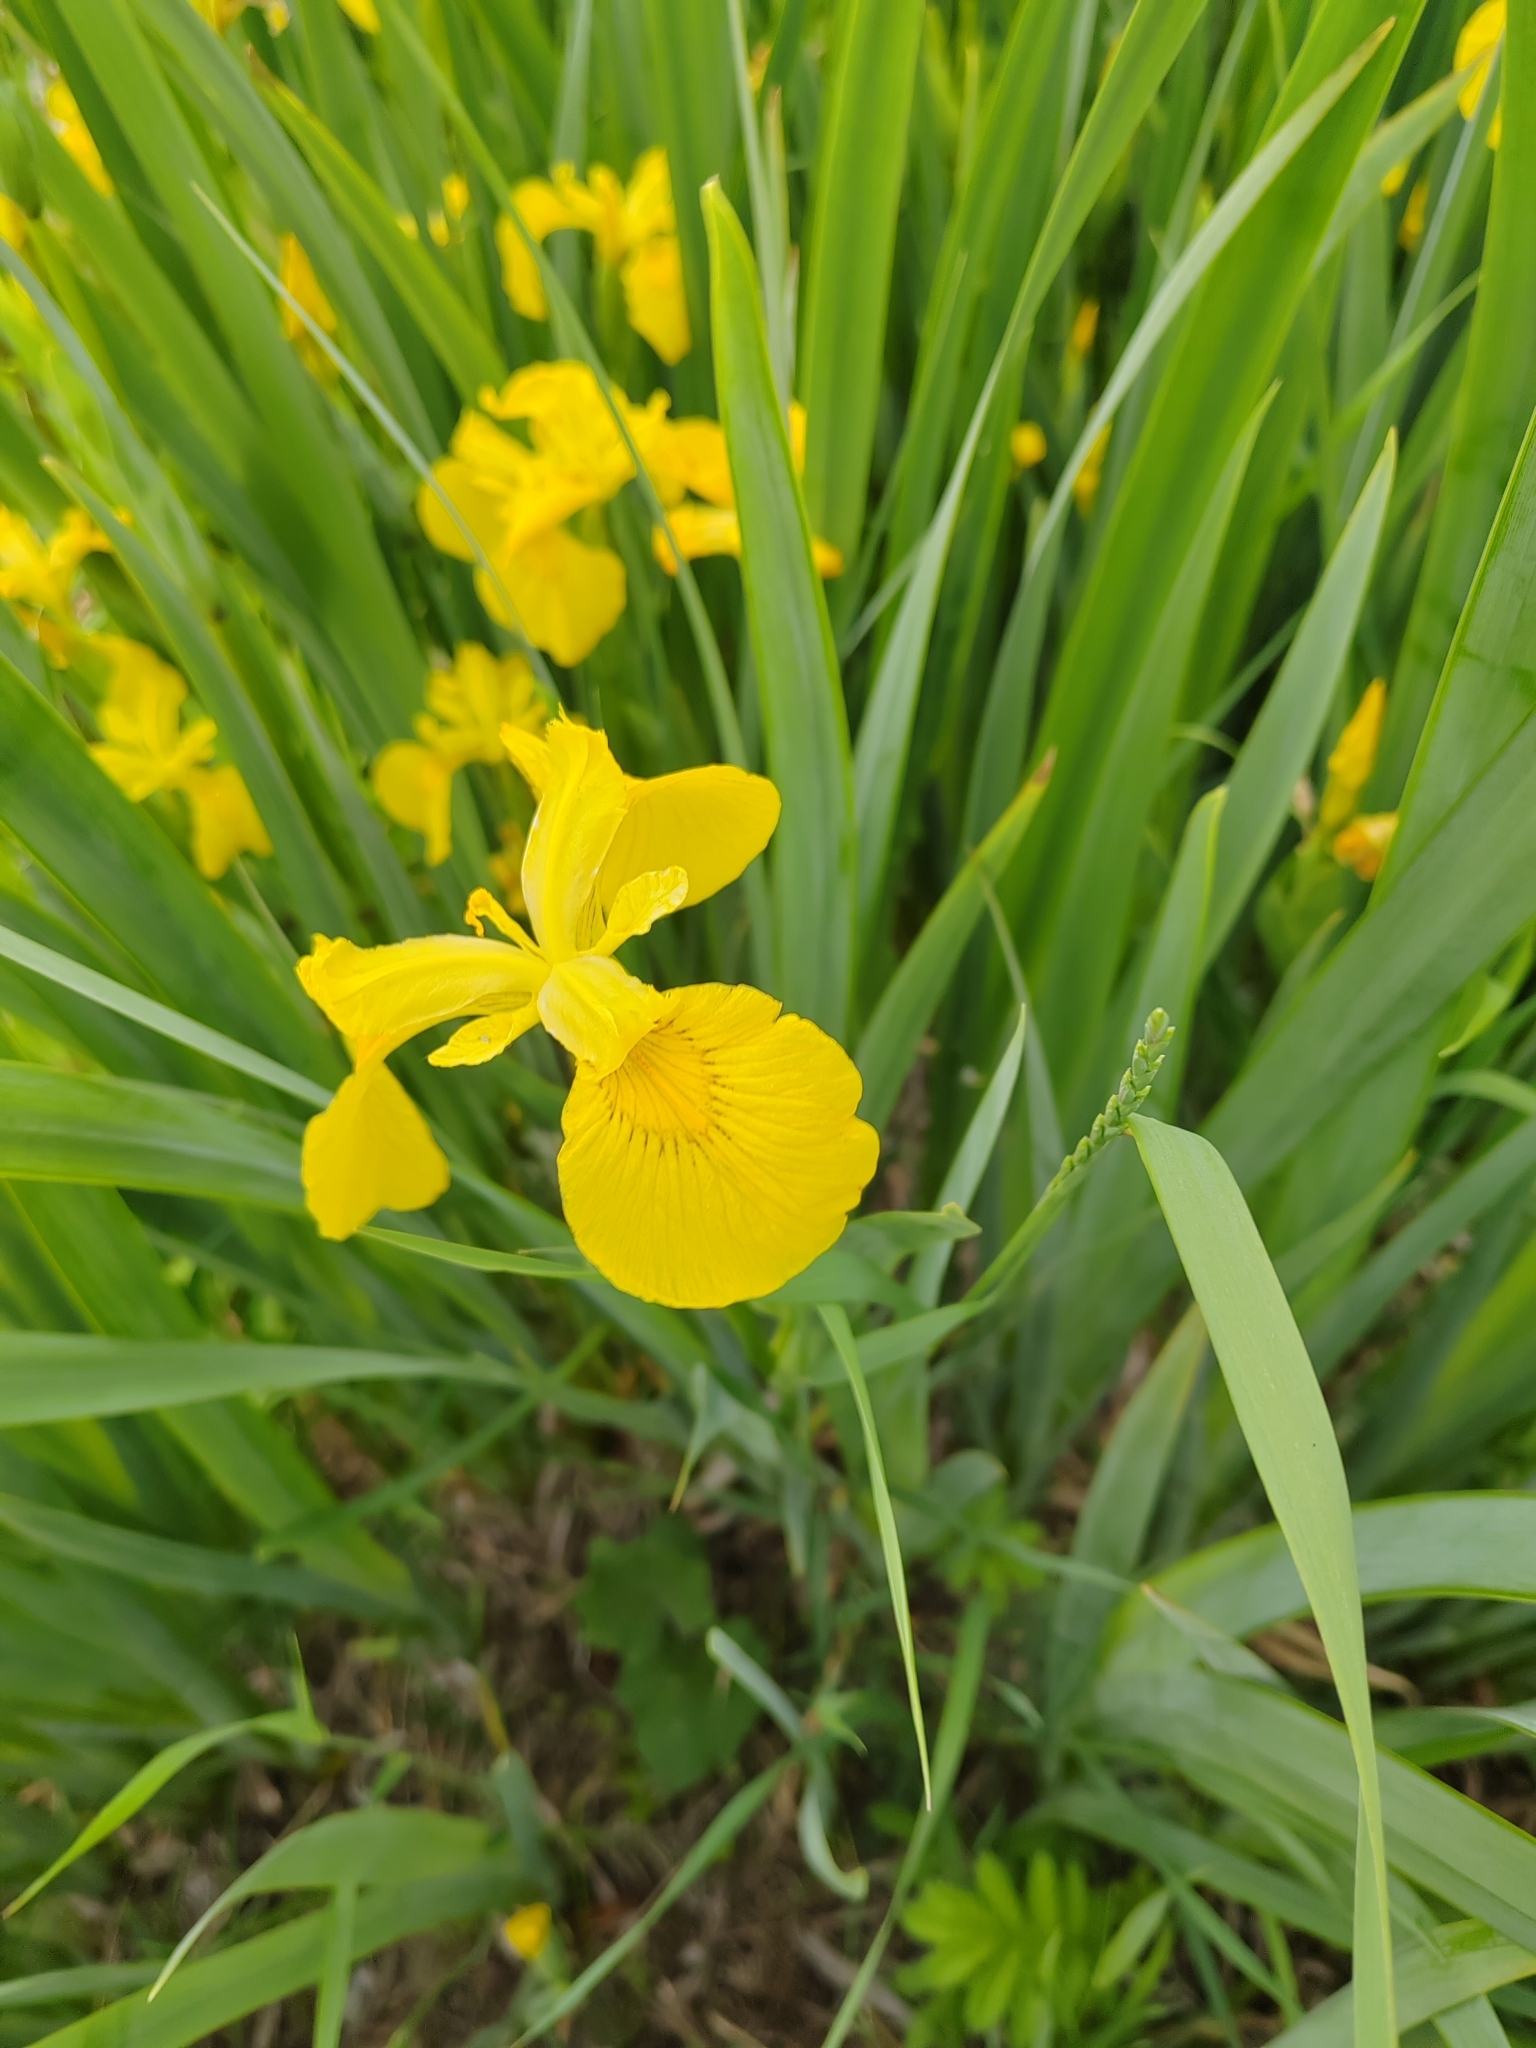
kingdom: Plantae
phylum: Tracheophyta
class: Liliopsida
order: Asparagales
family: Iridaceae
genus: Iris
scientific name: Iris pseudacorus
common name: Yellow flag
